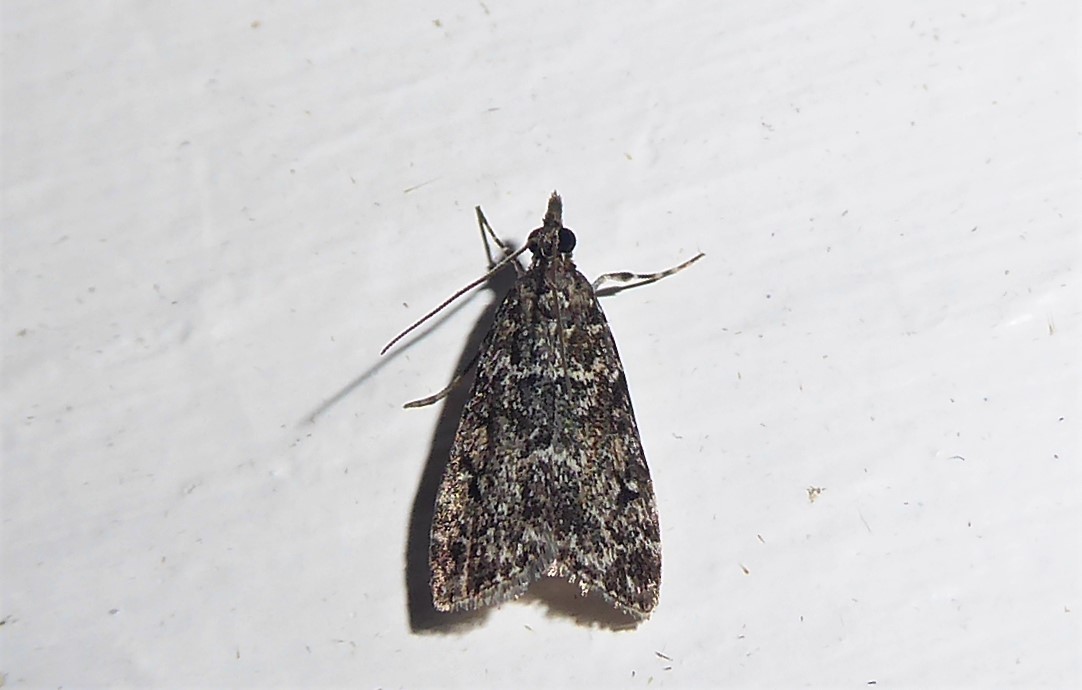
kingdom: Animalia
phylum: Arthropoda
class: Insecta
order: Lepidoptera
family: Crambidae
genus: Eudonia
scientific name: Eudonia philerga
